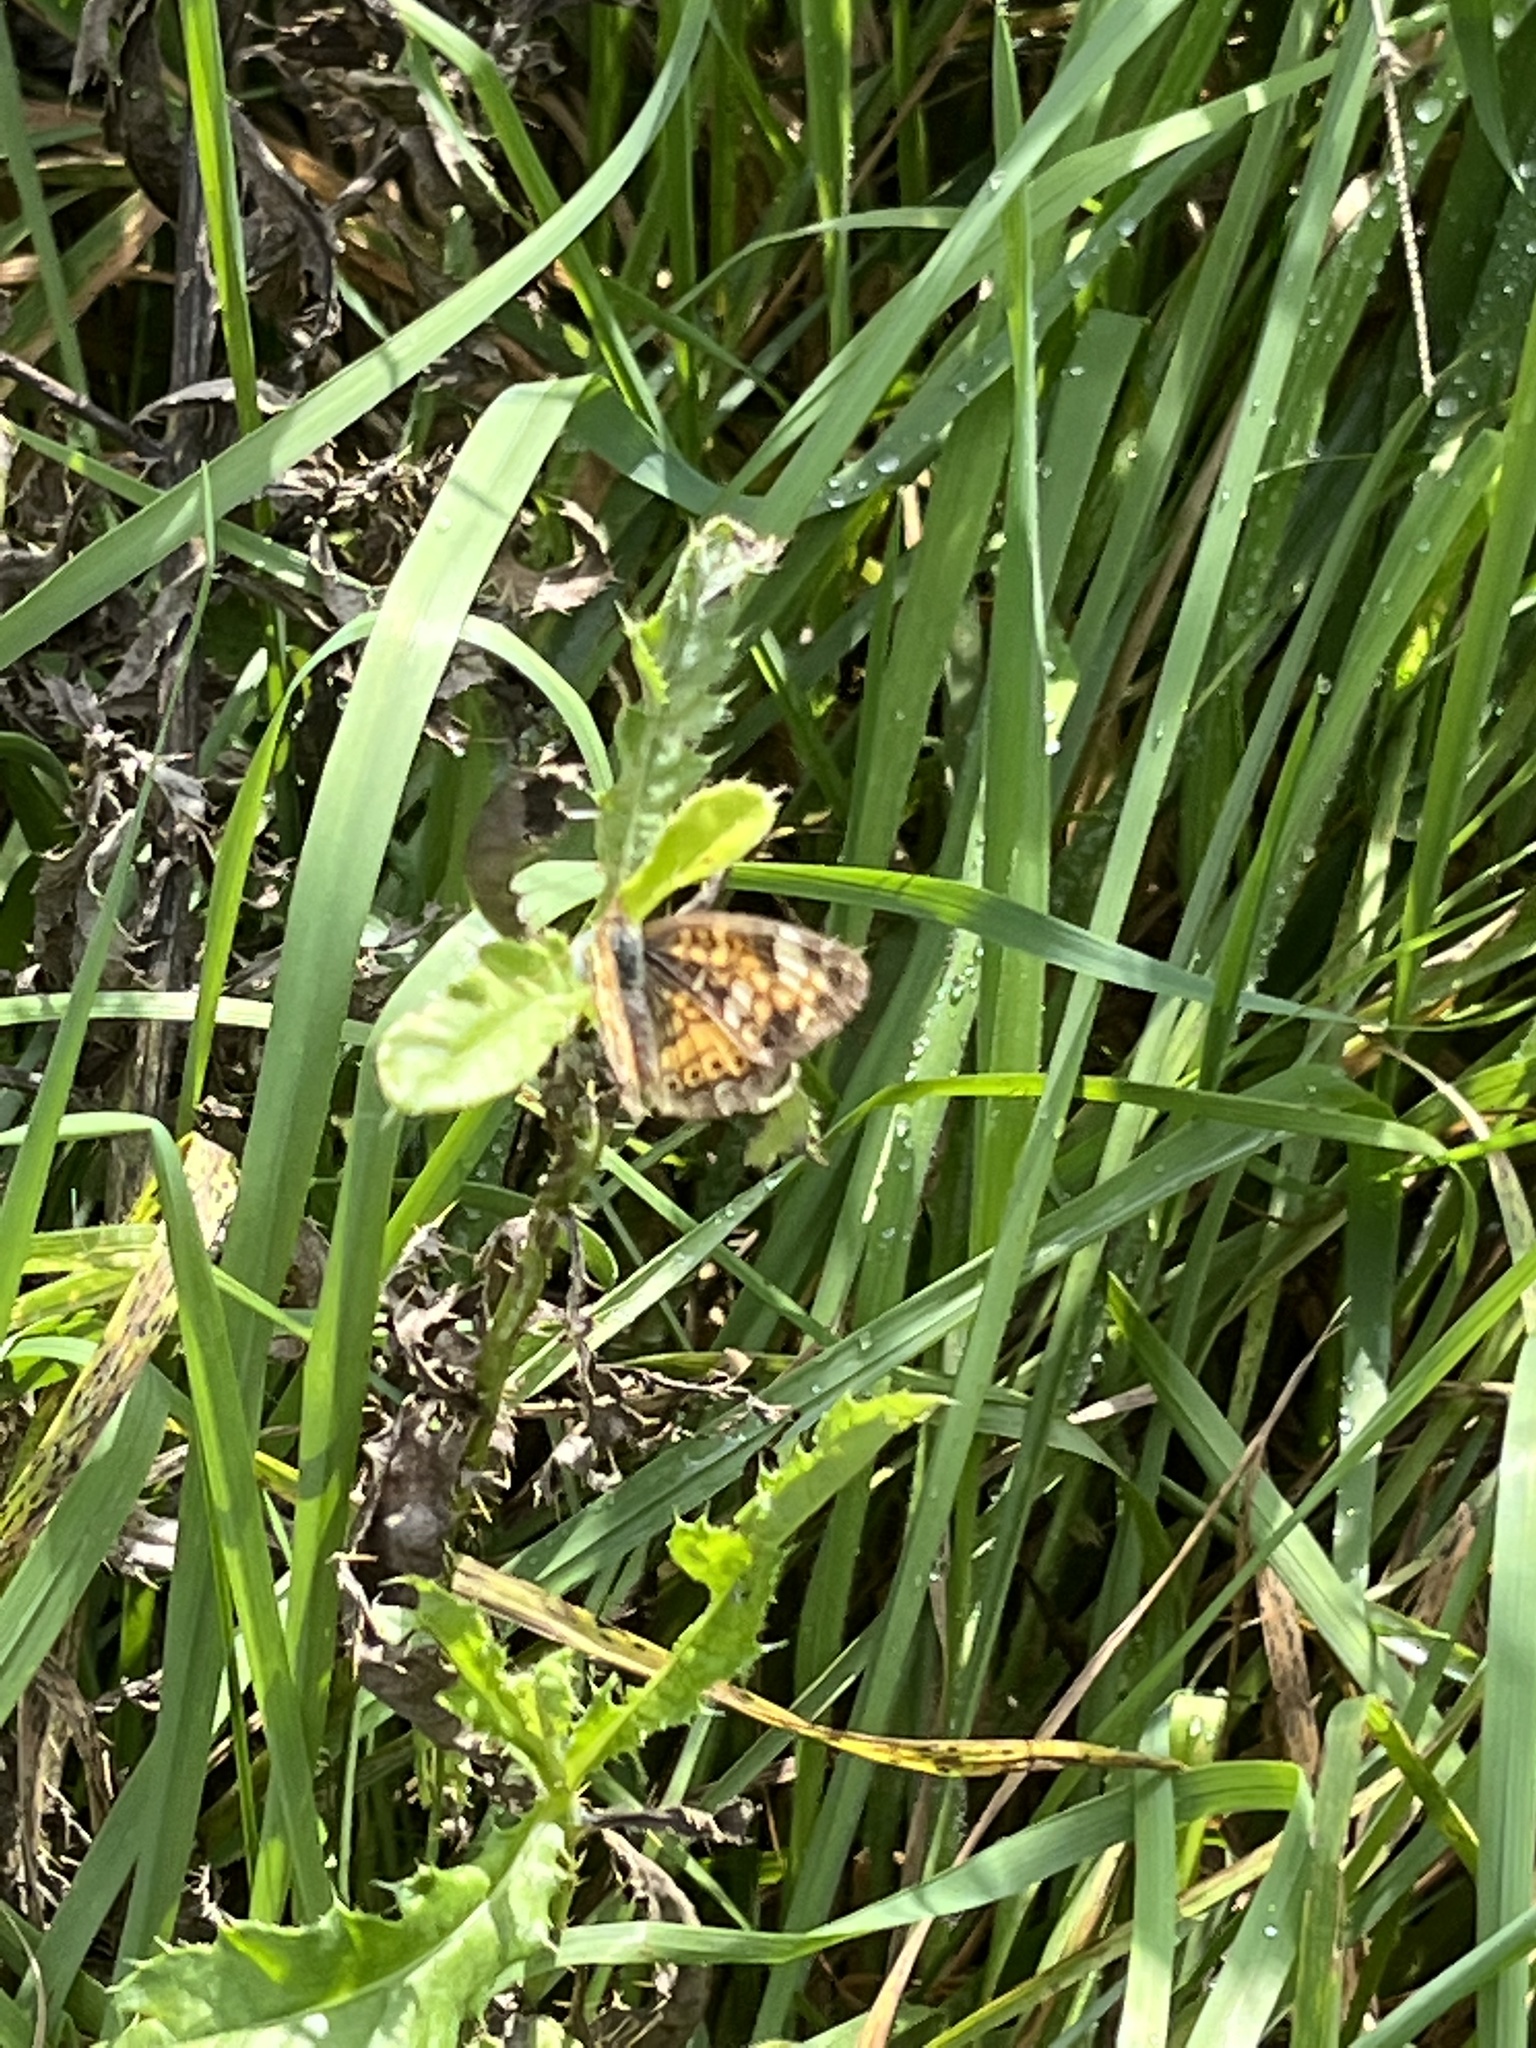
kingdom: Animalia
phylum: Arthropoda
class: Insecta
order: Lepidoptera
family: Nymphalidae
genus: Phyciodes
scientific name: Phyciodes tharos
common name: Pearl crescent
